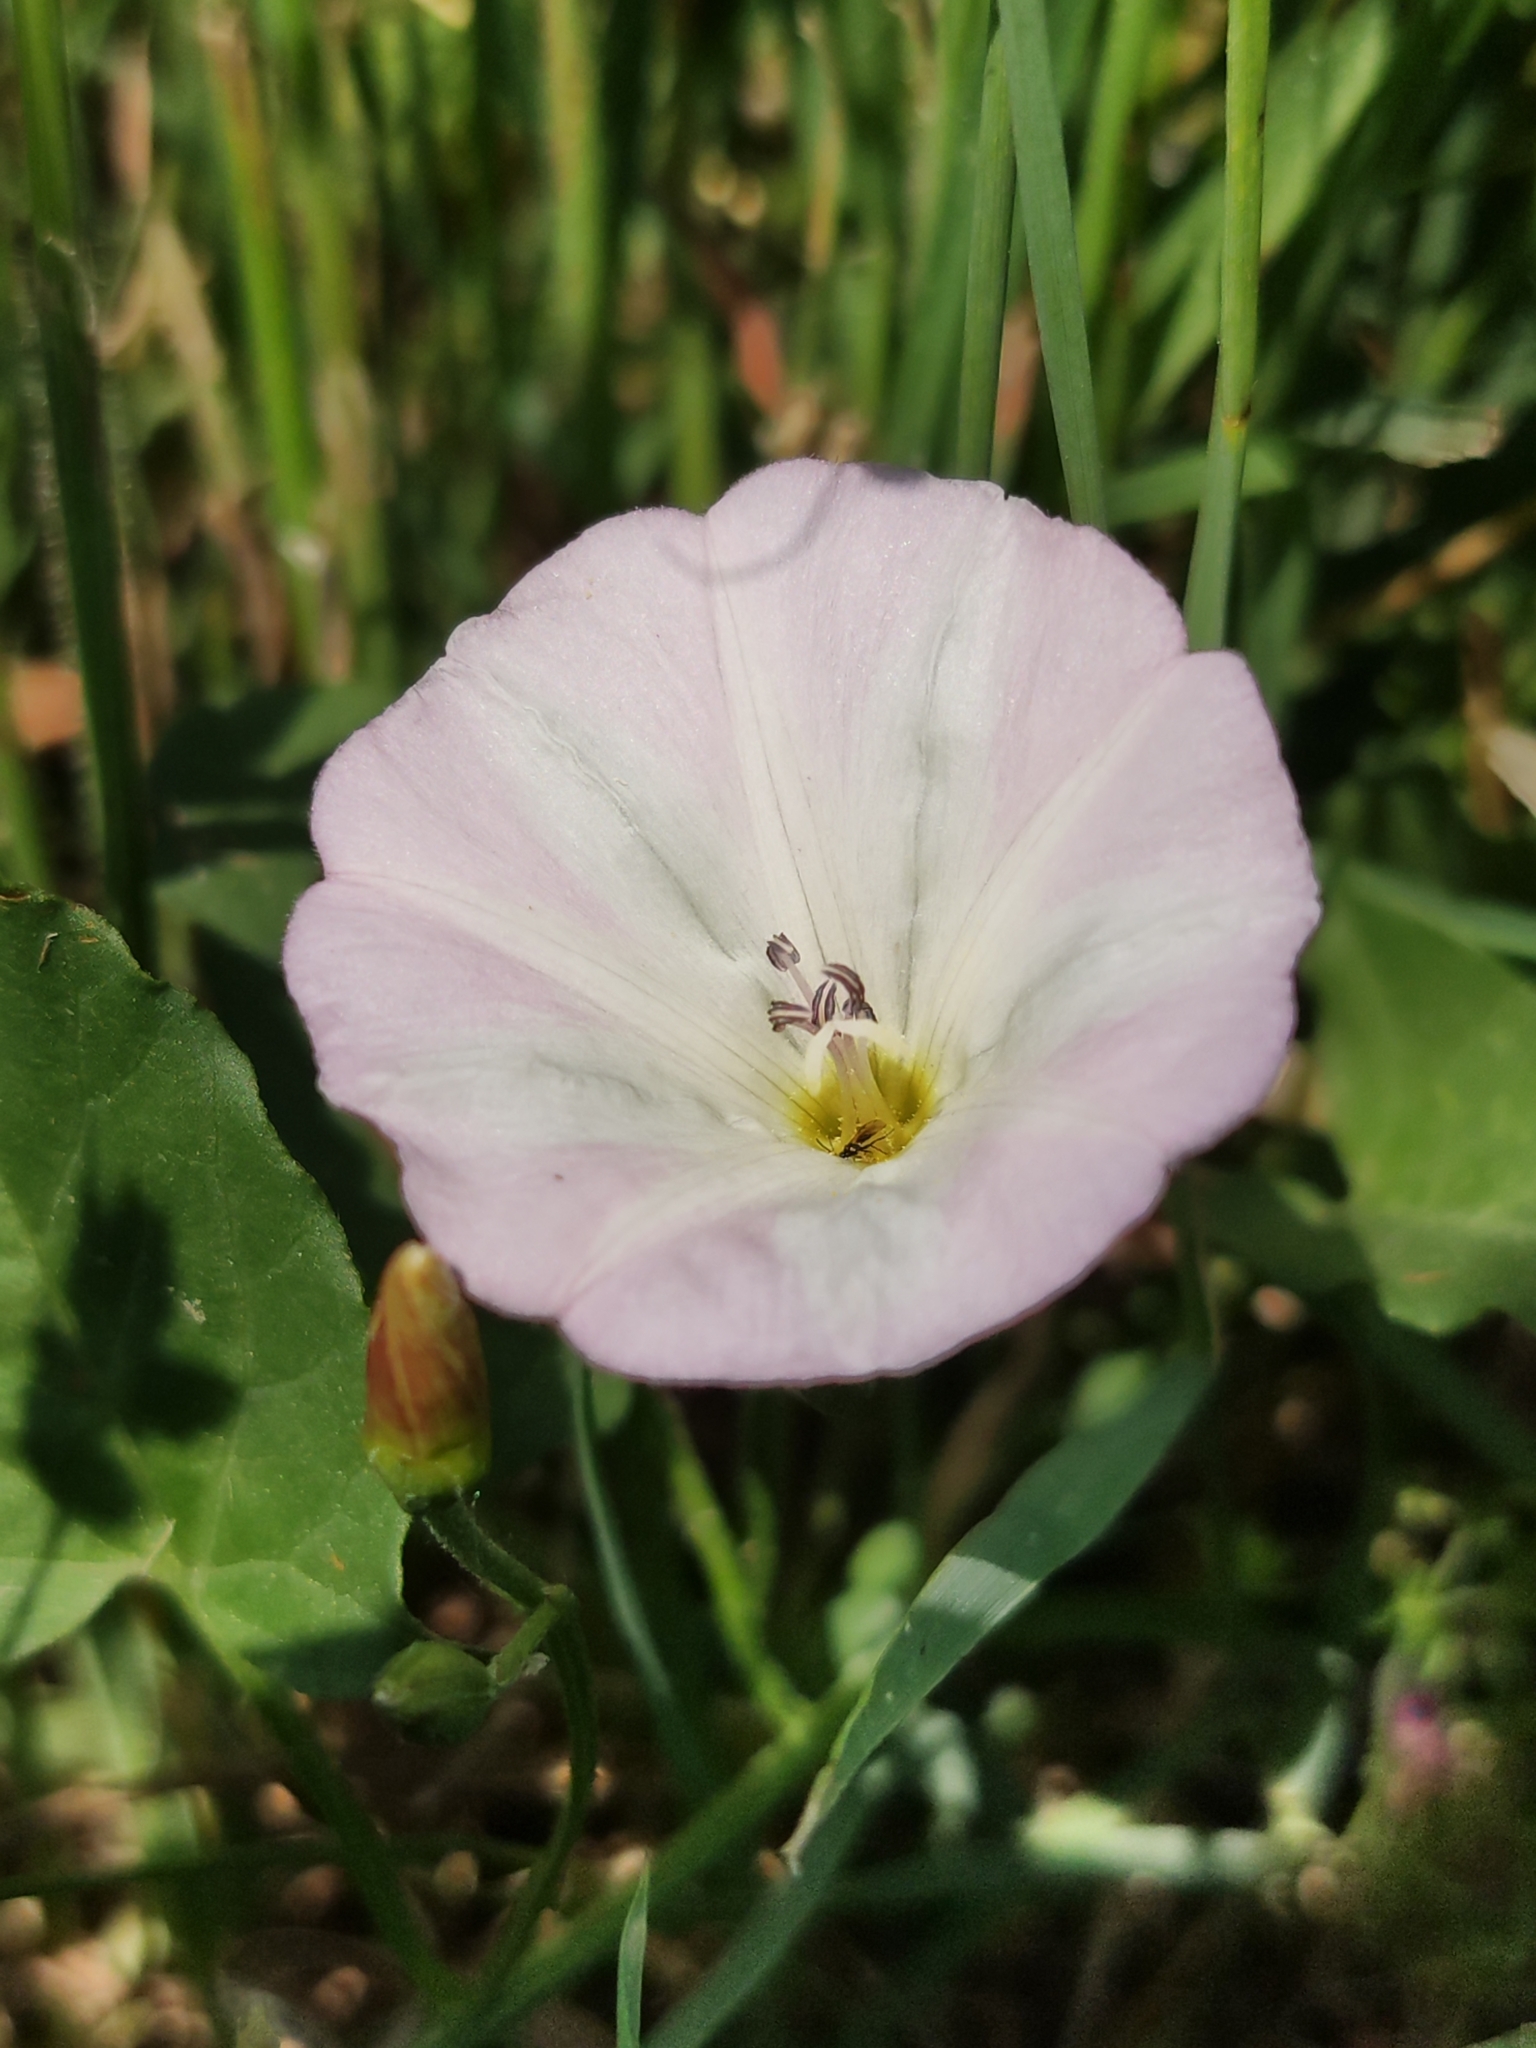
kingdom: Plantae
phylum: Tracheophyta
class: Magnoliopsida
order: Solanales
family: Convolvulaceae
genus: Convolvulus
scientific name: Convolvulus arvensis
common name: Field bindweed
